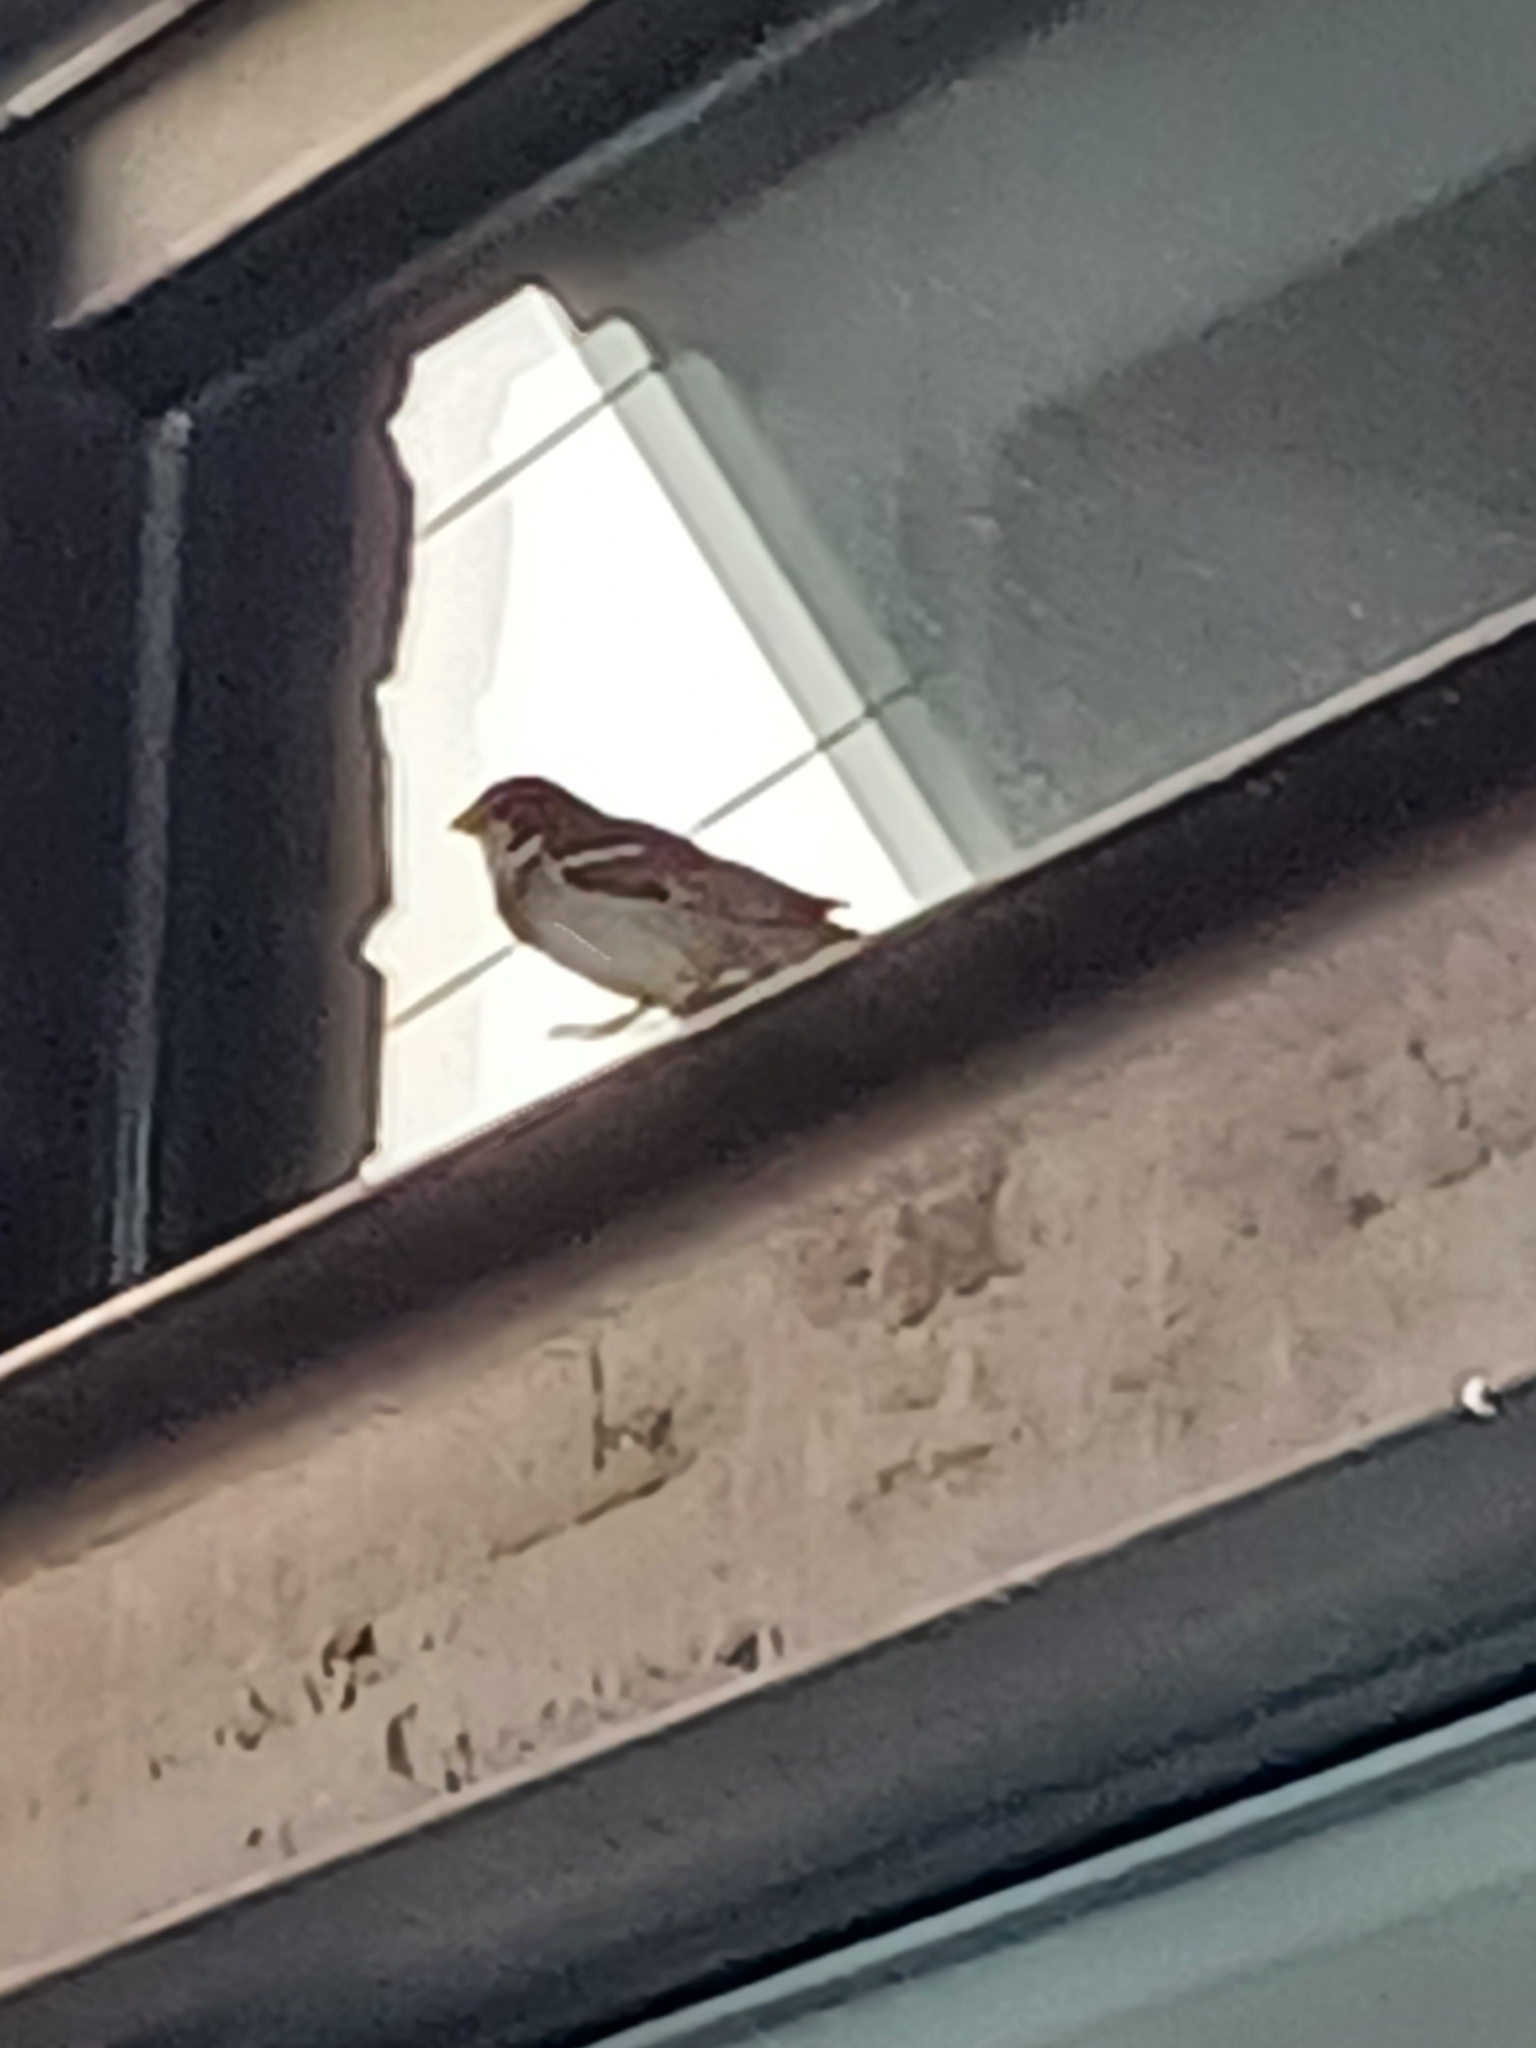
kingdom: Animalia
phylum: Chordata
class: Aves
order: Passeriformes
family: Passeridae
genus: Passer
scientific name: Passer domesticus
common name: House sparrow
